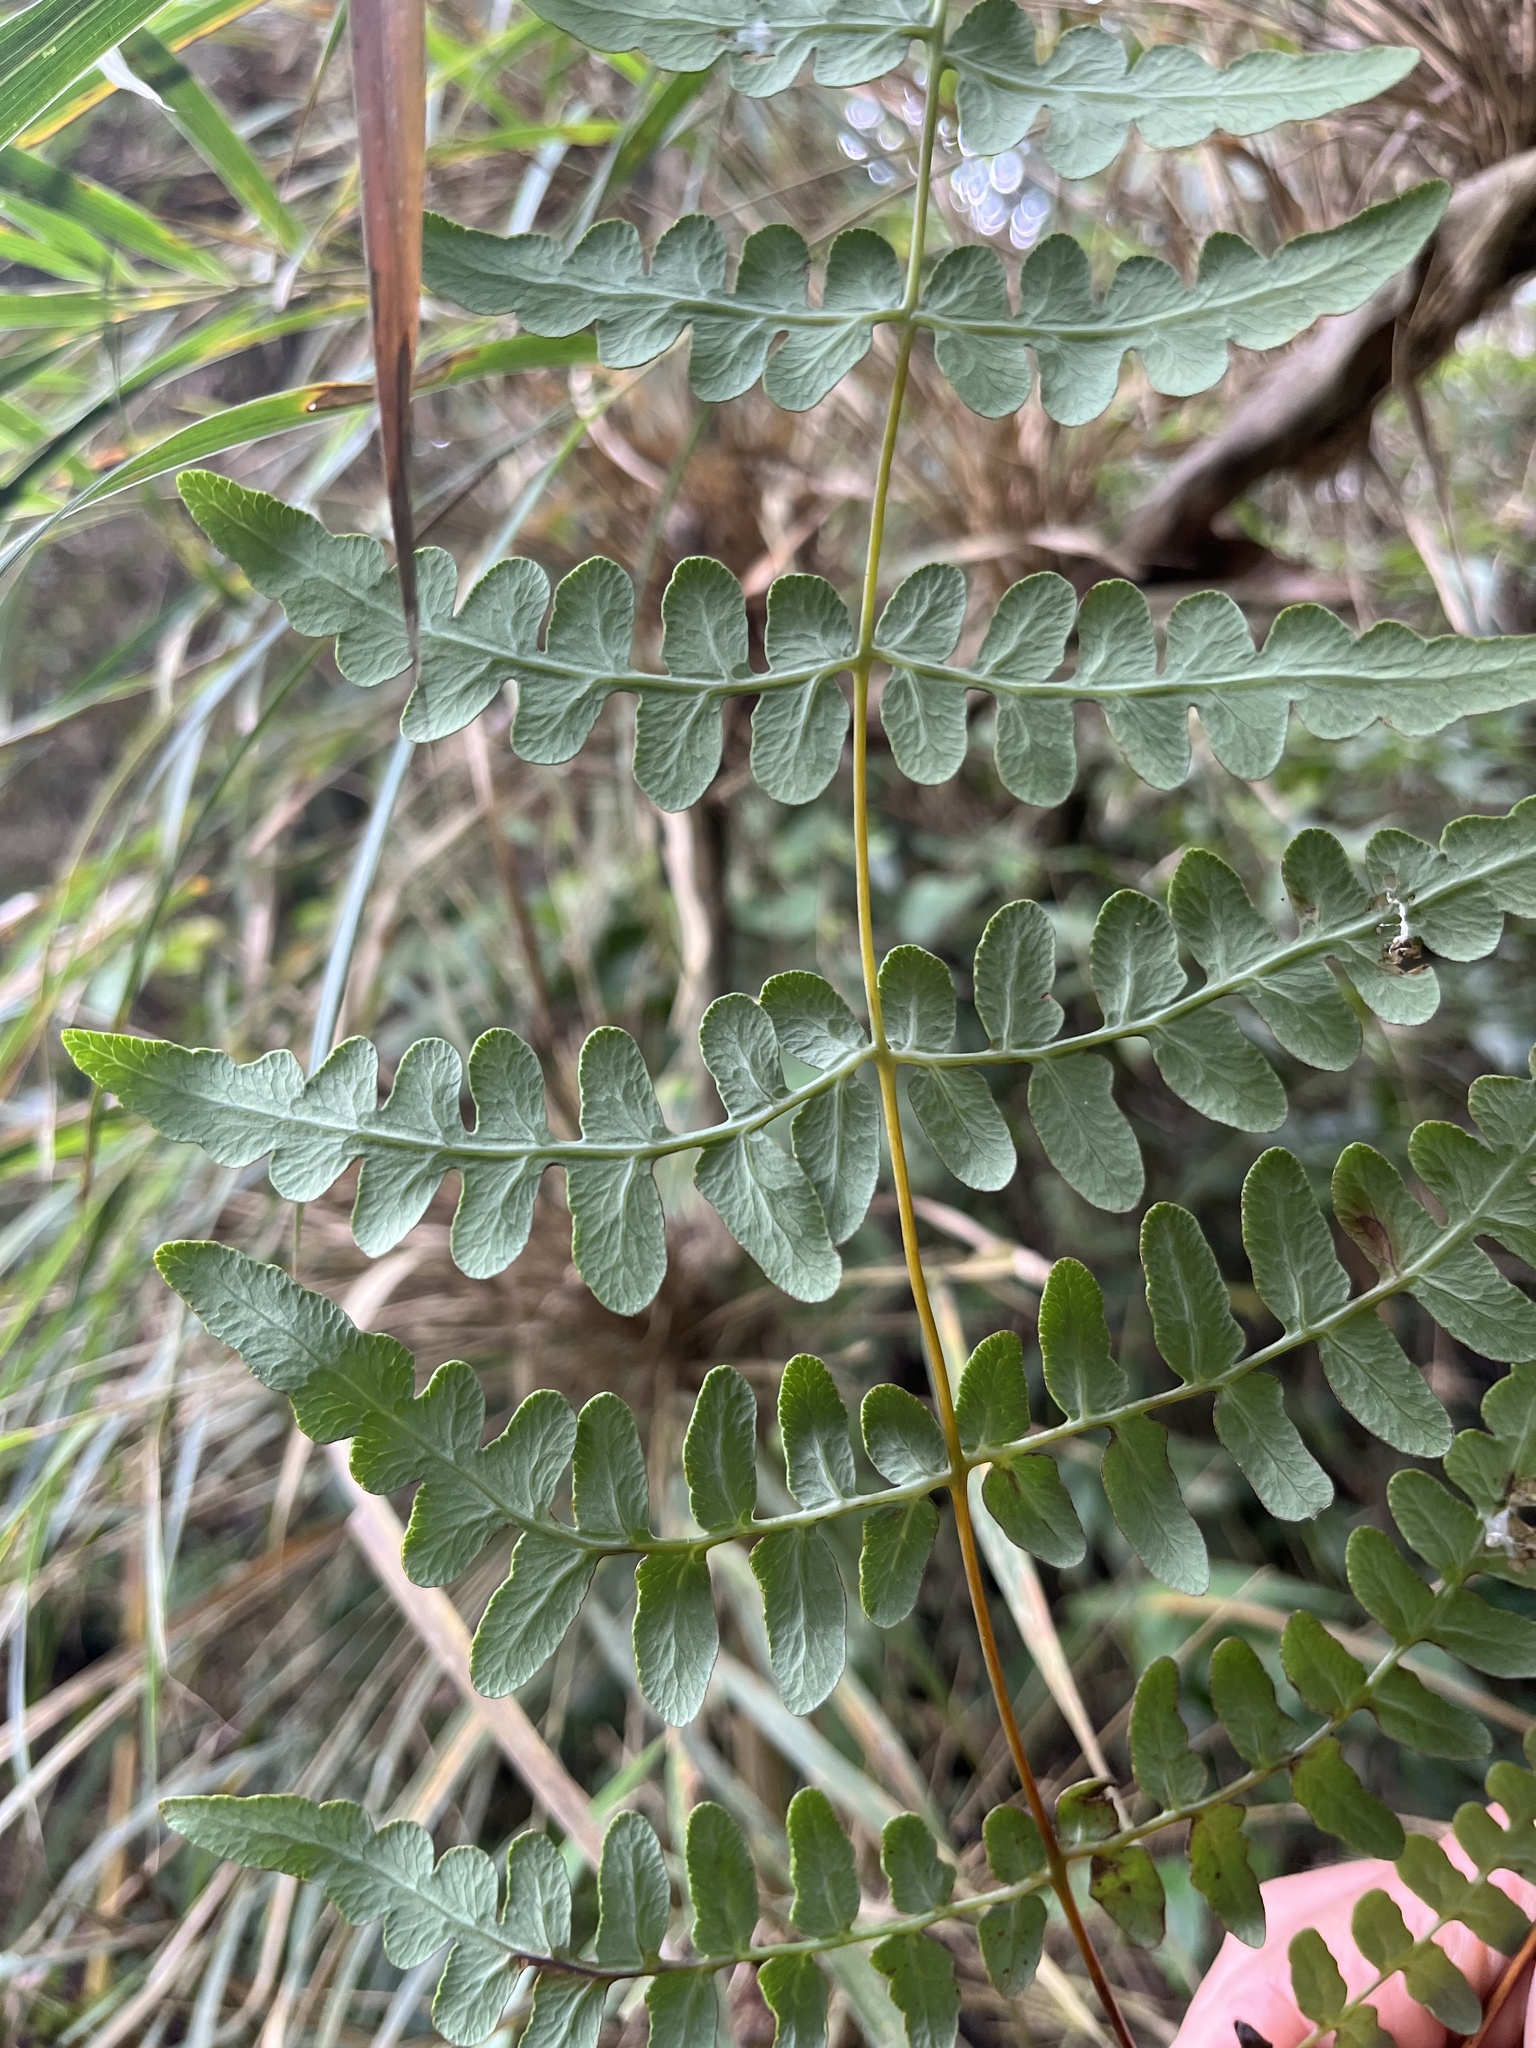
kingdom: Plantae
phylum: Tracheophyta
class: Polypodiopsida
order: Polypodiales
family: Dennstaedtiaceae
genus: Histiopteris
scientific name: Histiopteris incisa
